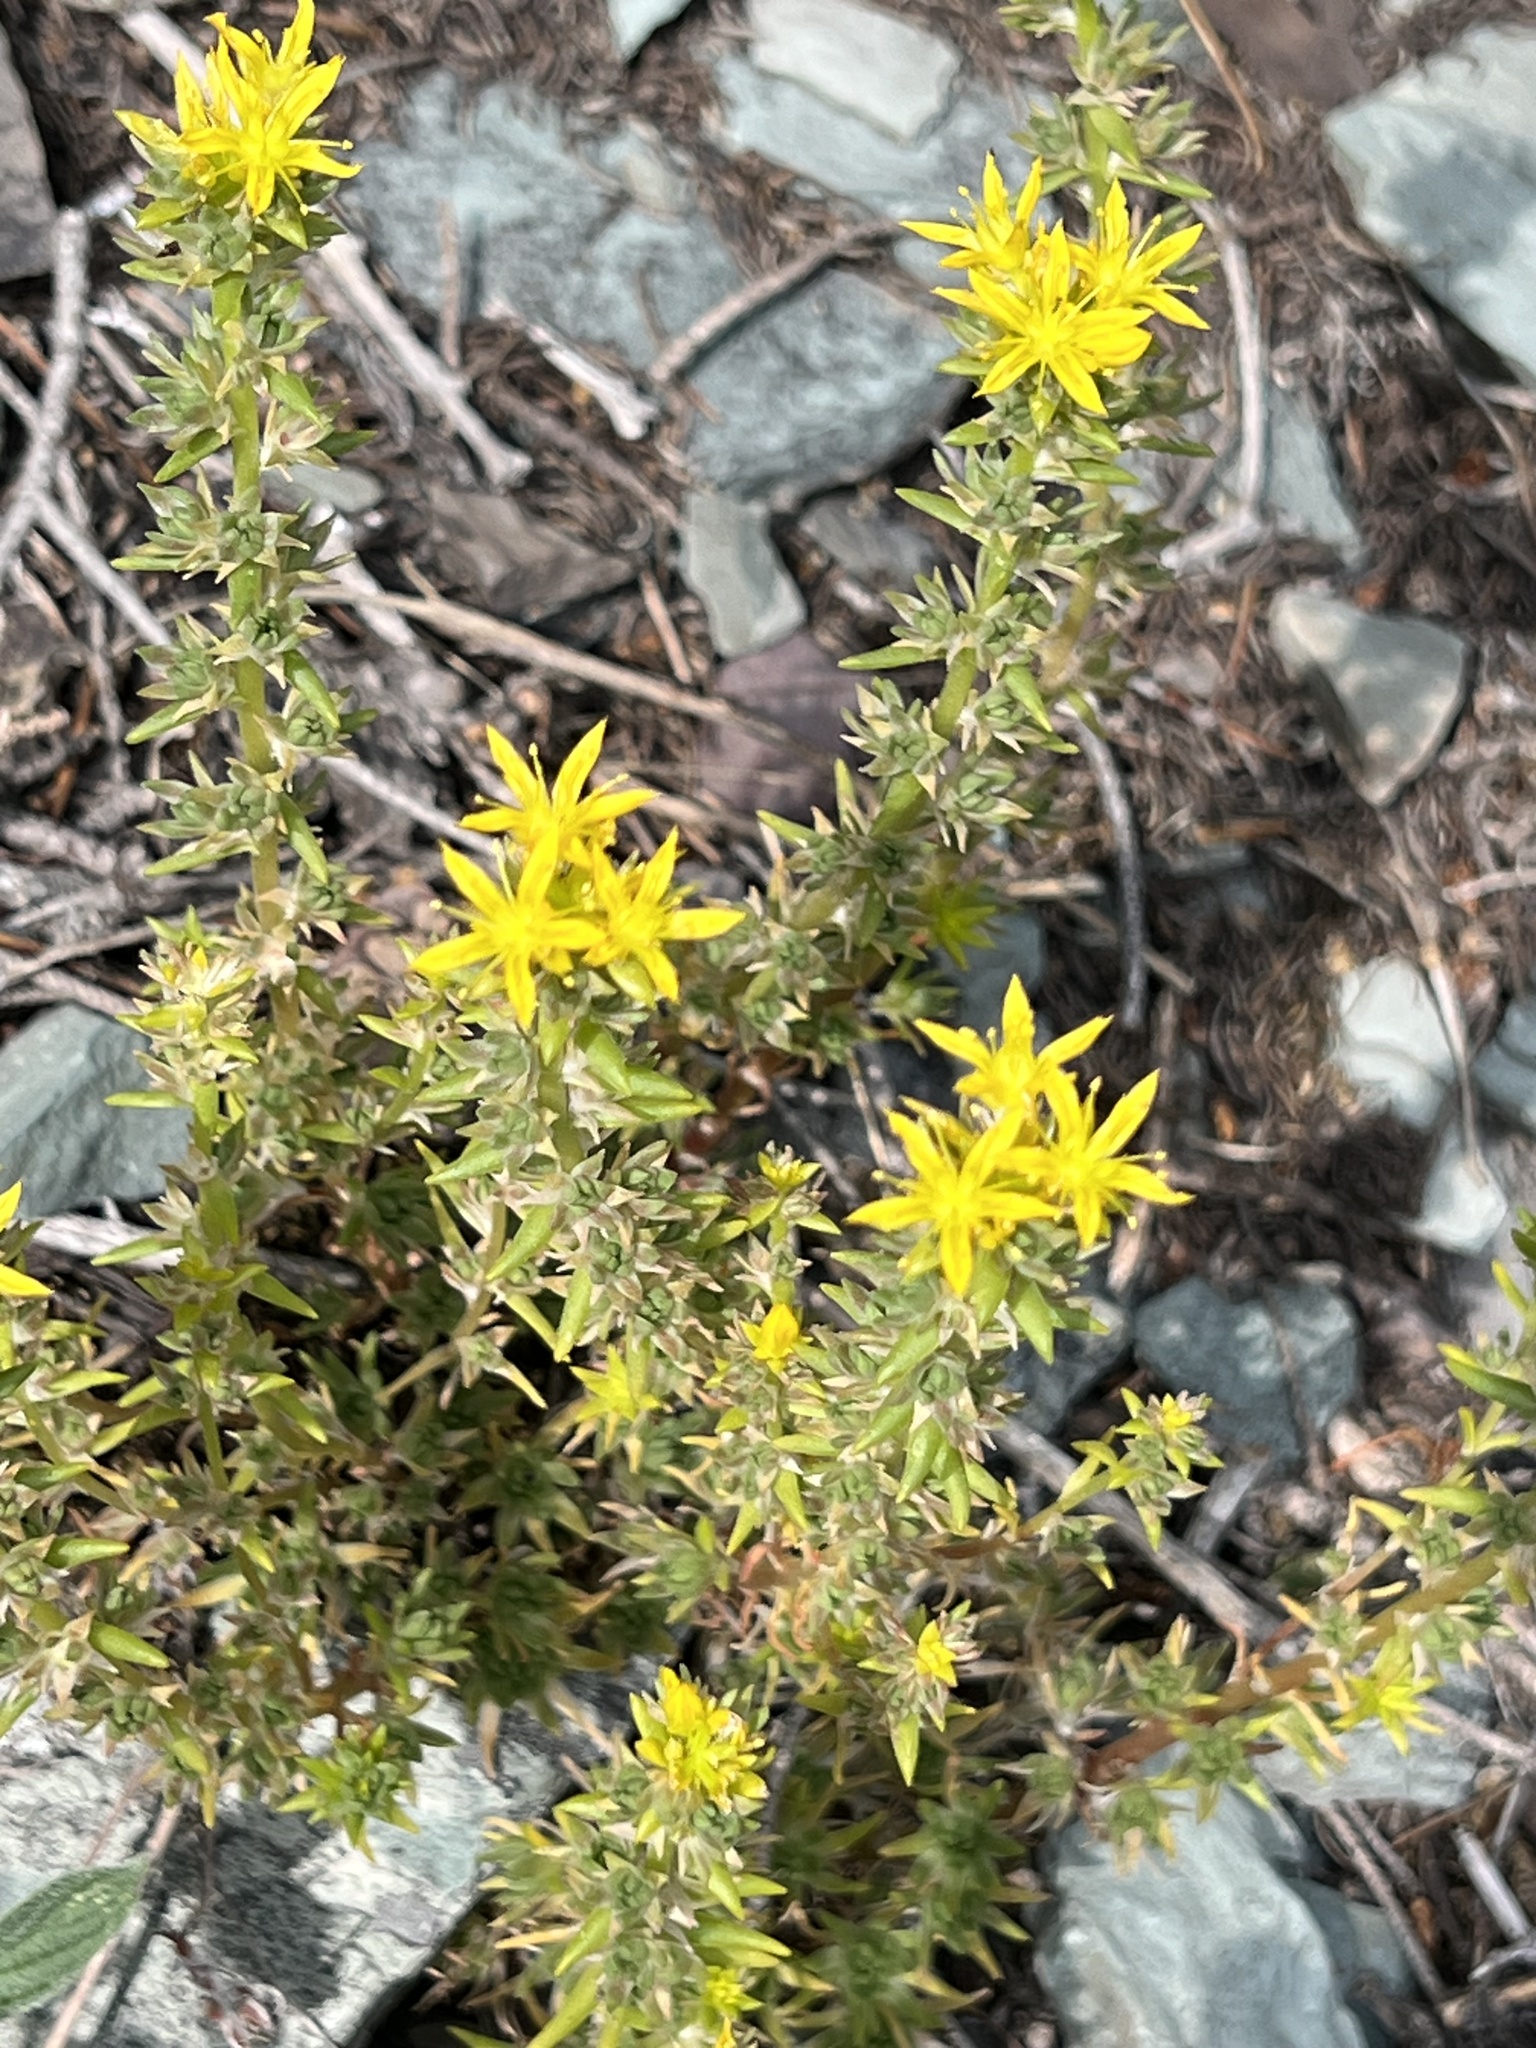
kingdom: Plantae
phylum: Tracheophyta
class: Magnoliopsida
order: Saxifragales
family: Crassulaceae
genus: Sedum
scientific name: Sedum stenopetalum
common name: Narrow-petaled stonecrop
